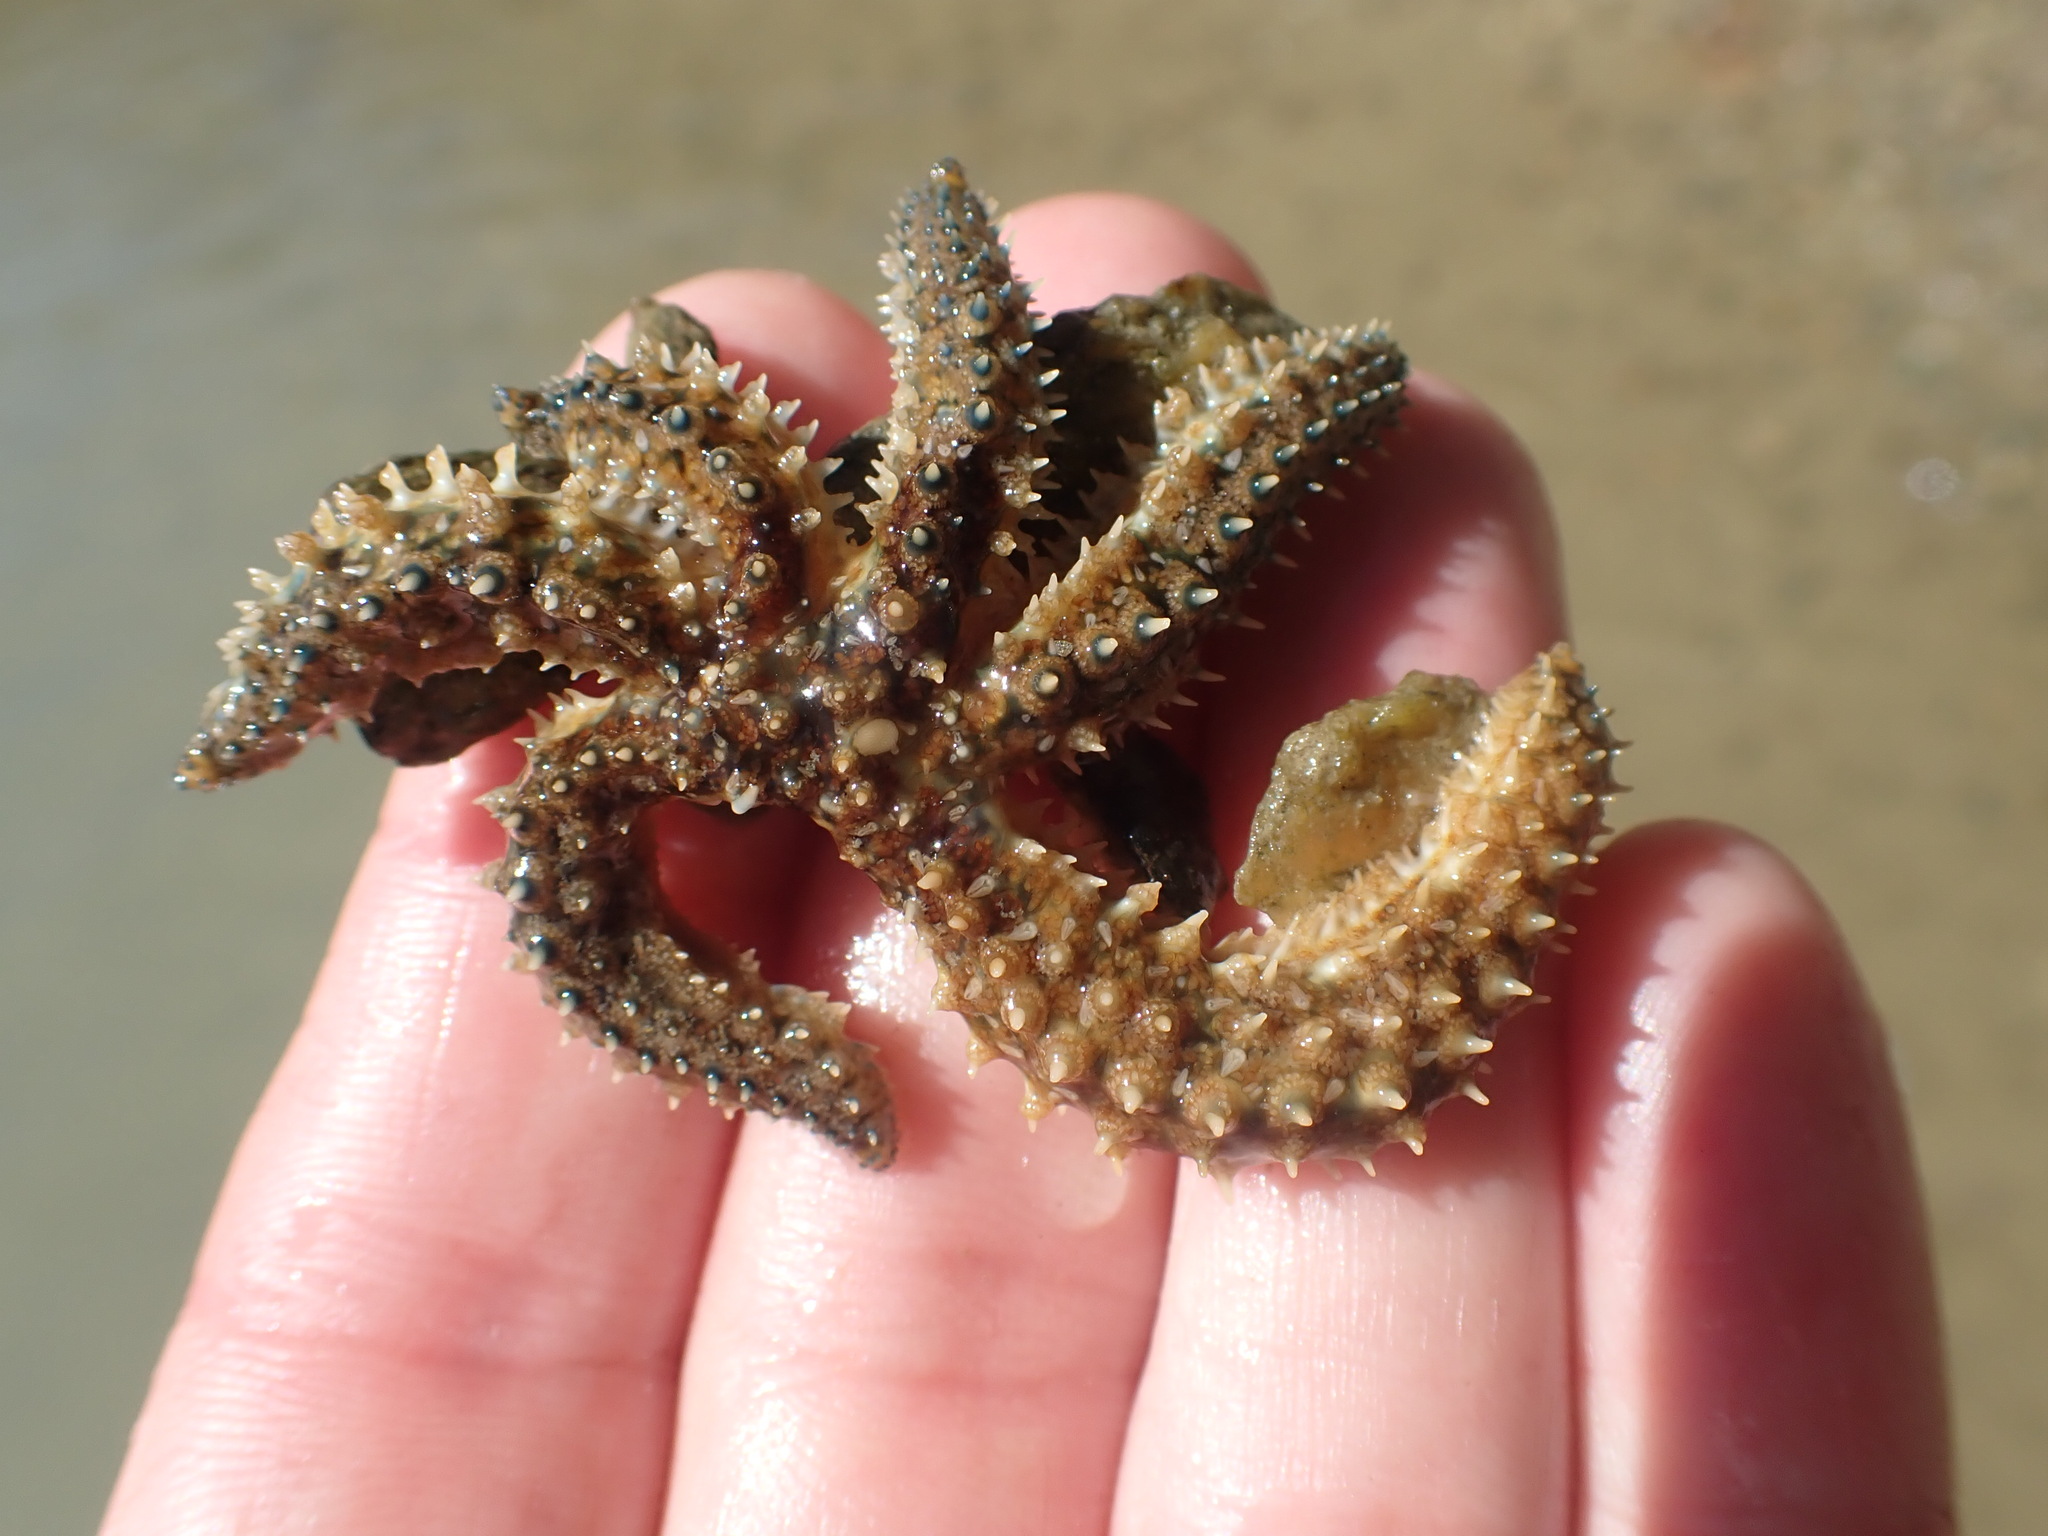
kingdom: Animalia
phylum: Echinodermata
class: Asteroidea
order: Forcipulatida
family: Asteriidae
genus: Coscinasterias
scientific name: Coscinasterias muricata
